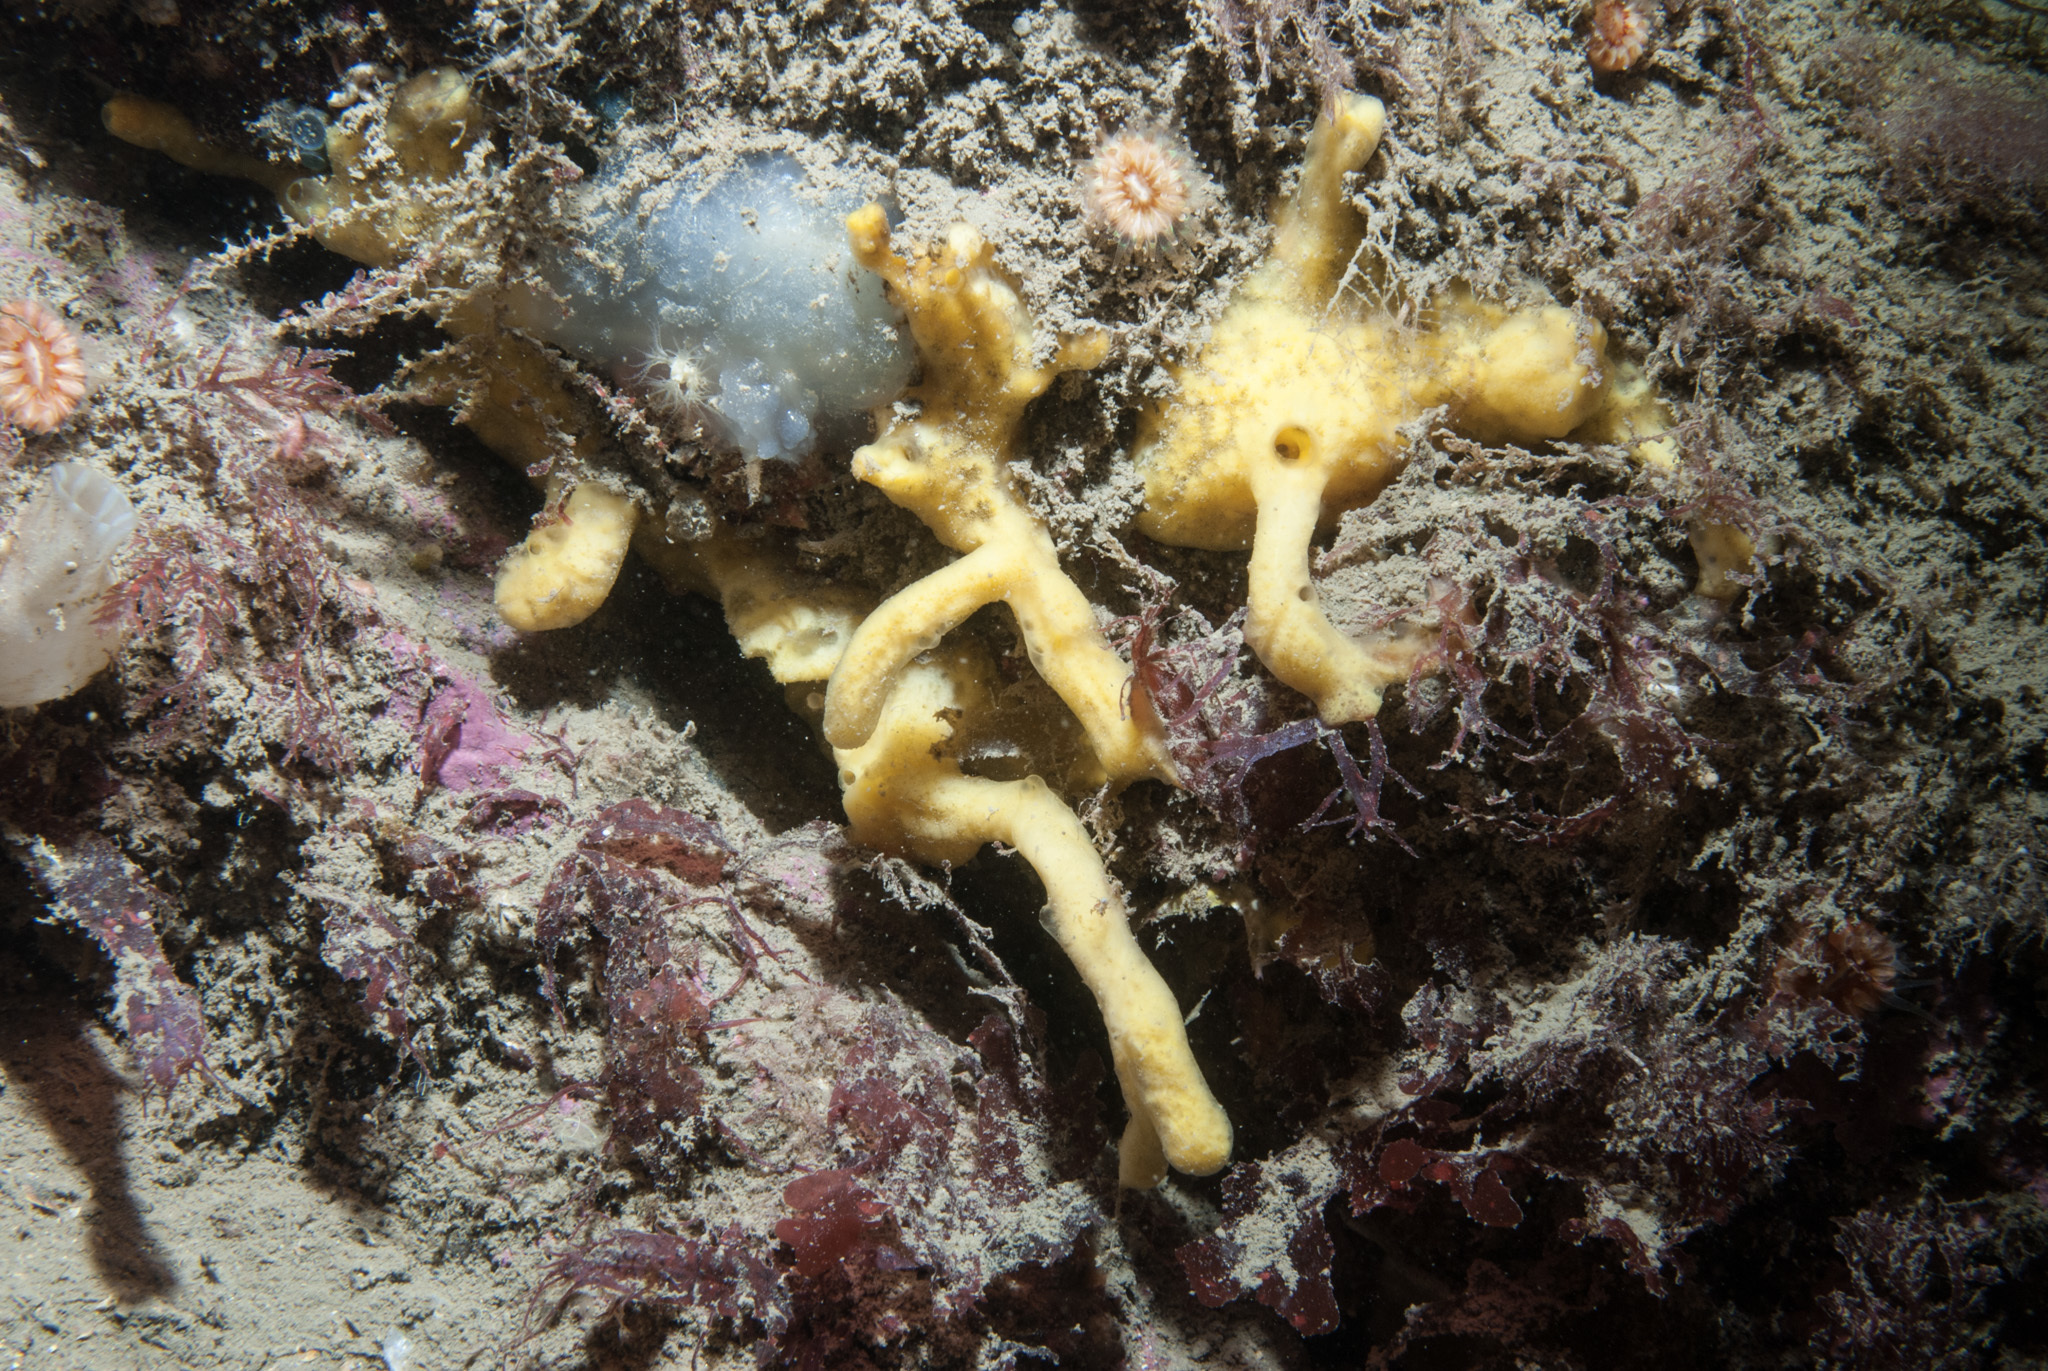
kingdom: Animalia
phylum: Porifera
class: Demospongiae
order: Poecilosclerida
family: Acarnidae
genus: Iophon
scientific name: Iophon nigricans
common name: Yellow-fingered horny sponge
